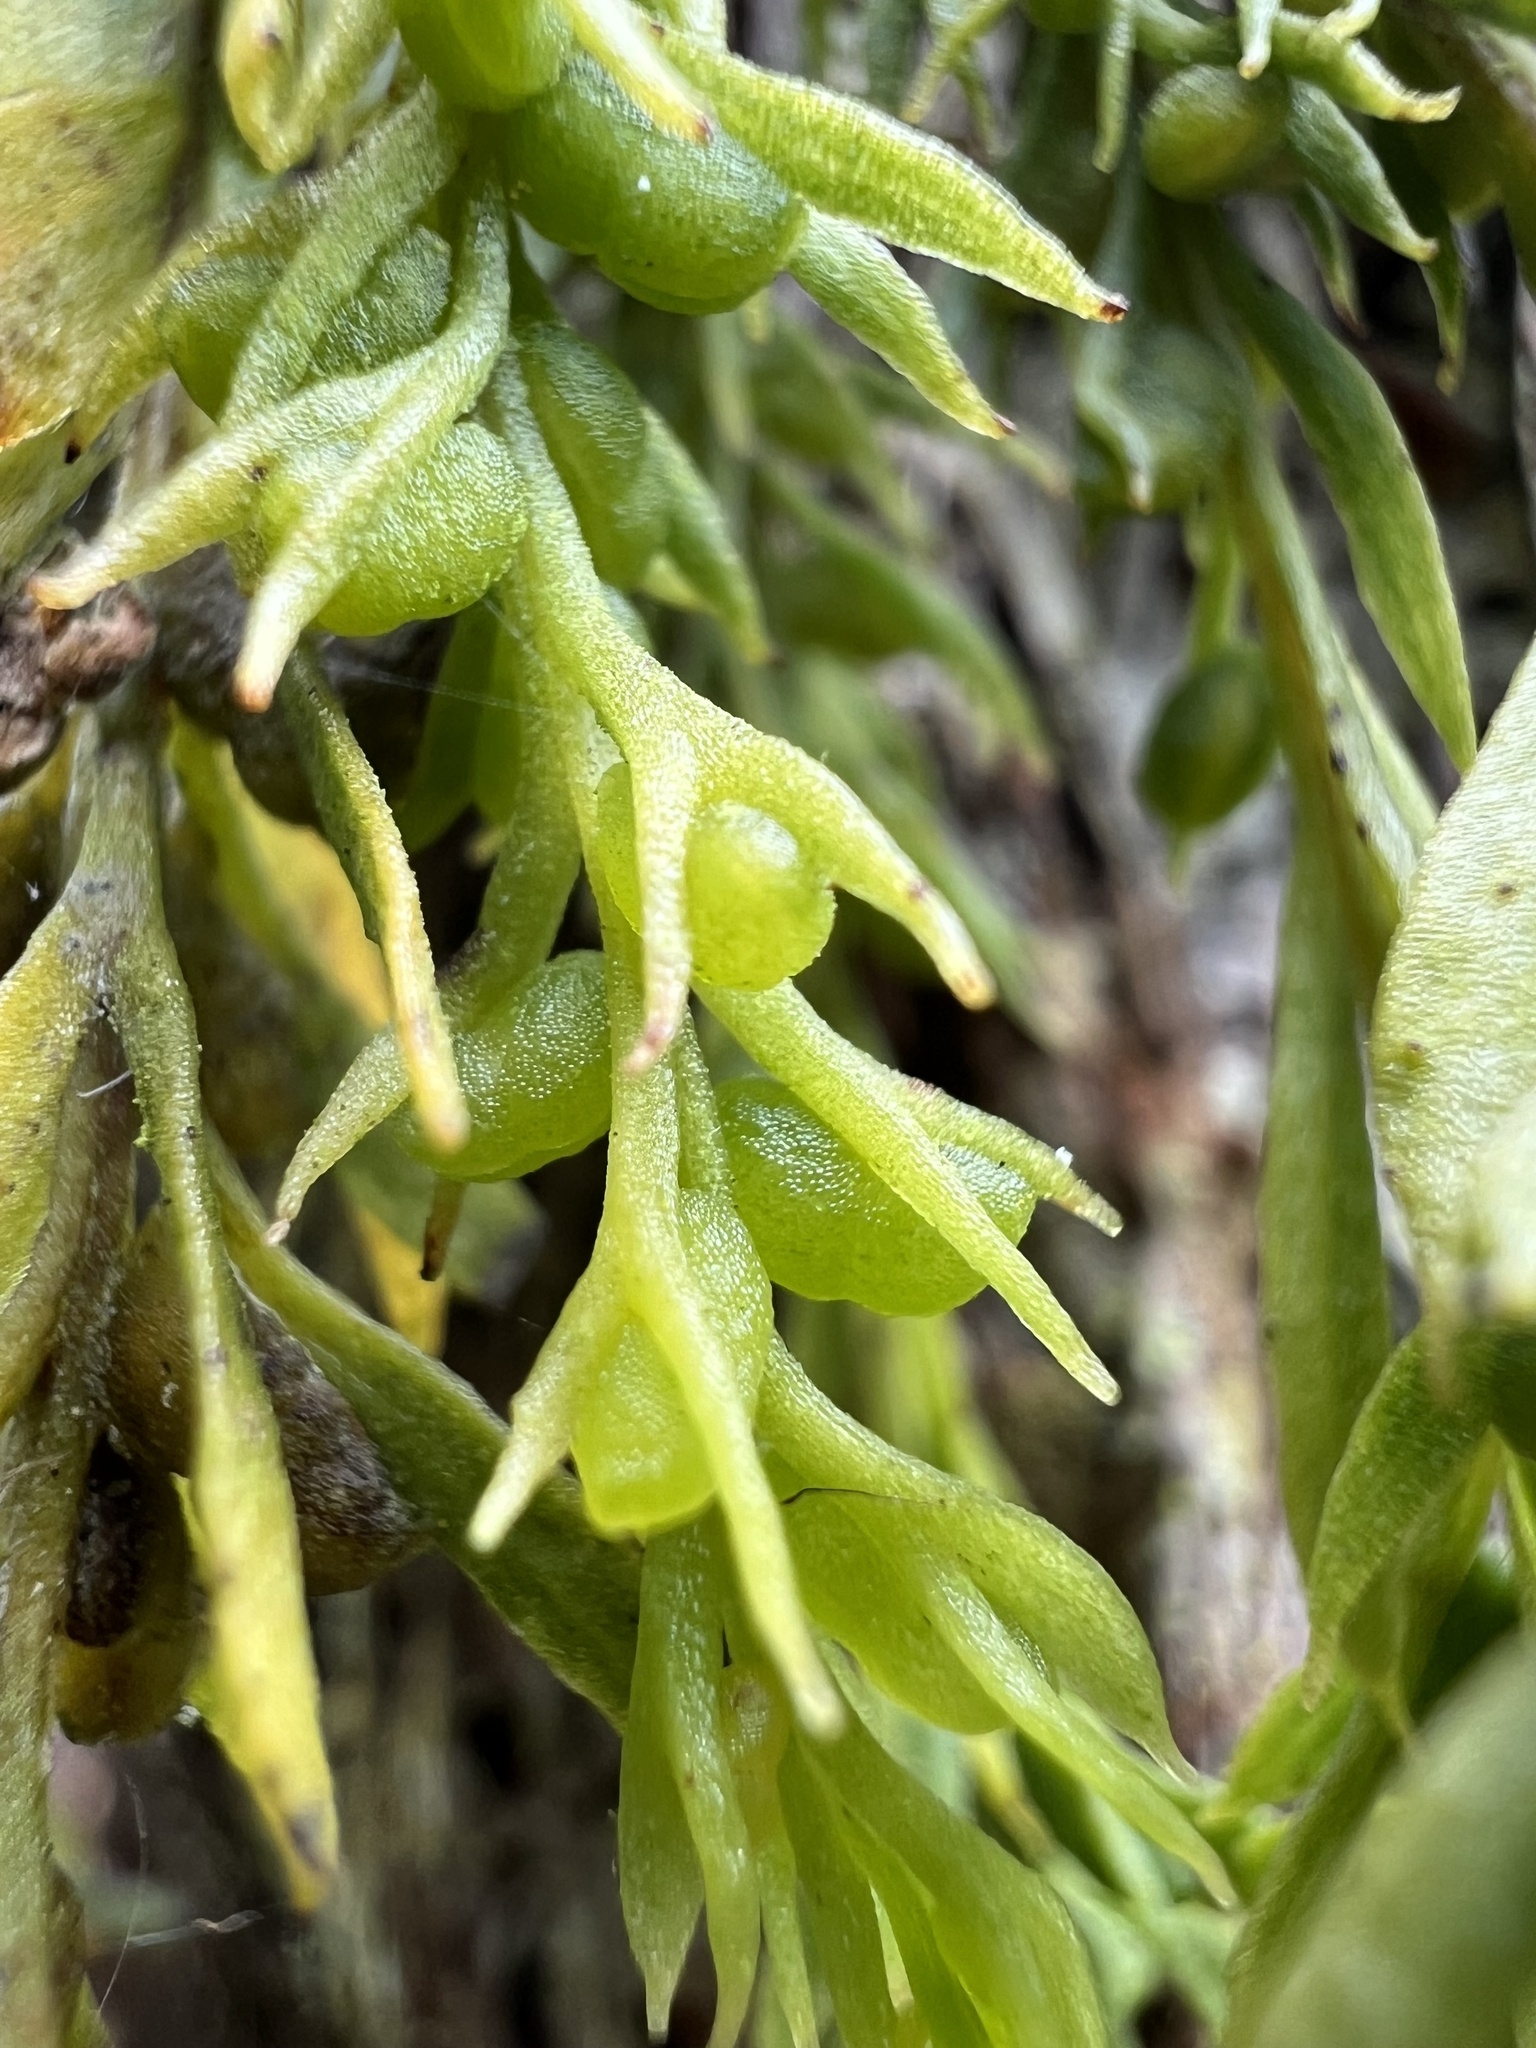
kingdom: Plantae
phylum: Tracheophyta
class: Polypodiopsida
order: Psilotales
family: Psilotaceae
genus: Tmesipteris
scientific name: Tmesipteris elongata
